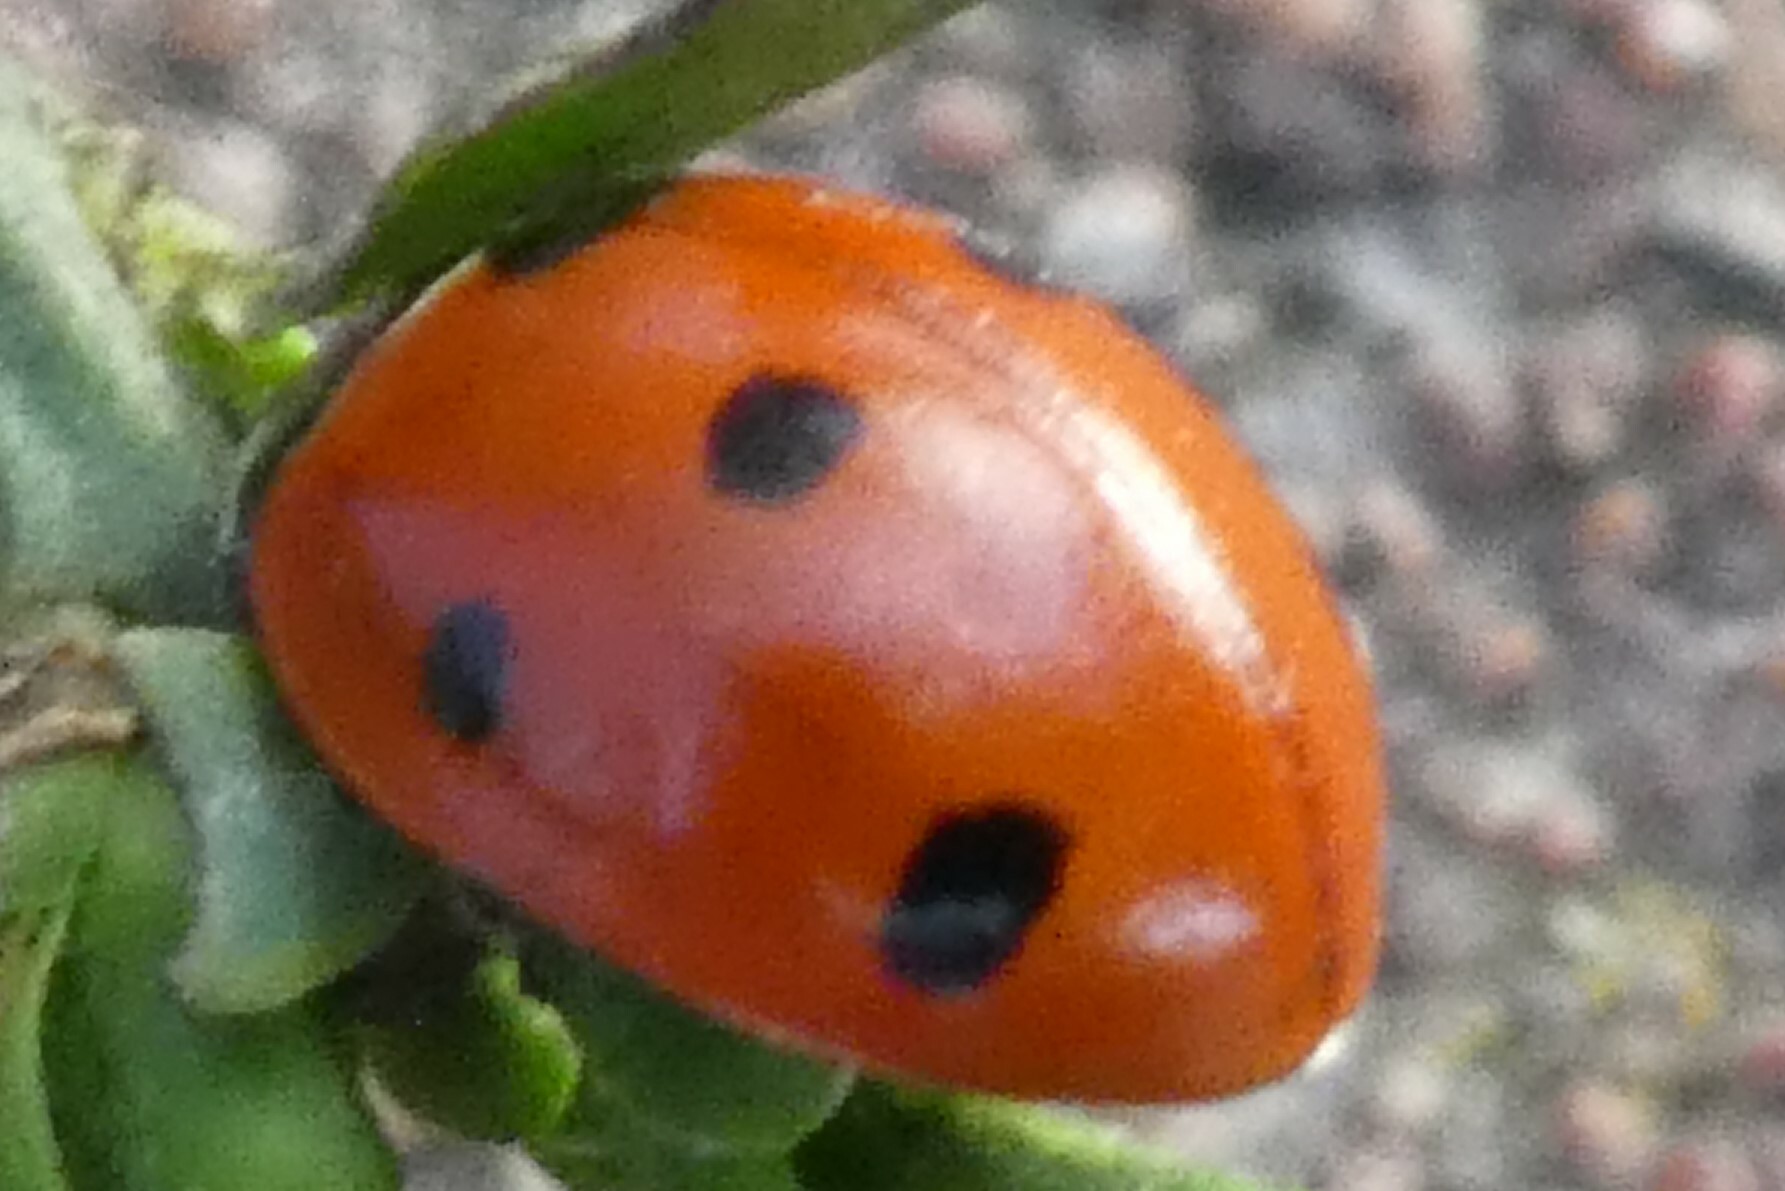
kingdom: Animalia
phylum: Arthropoda
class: Insecta
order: Coleoptera
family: Coccinellidae
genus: Coccinella
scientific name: Coccinella septempunctata
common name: Sevenspotted lady beetle
